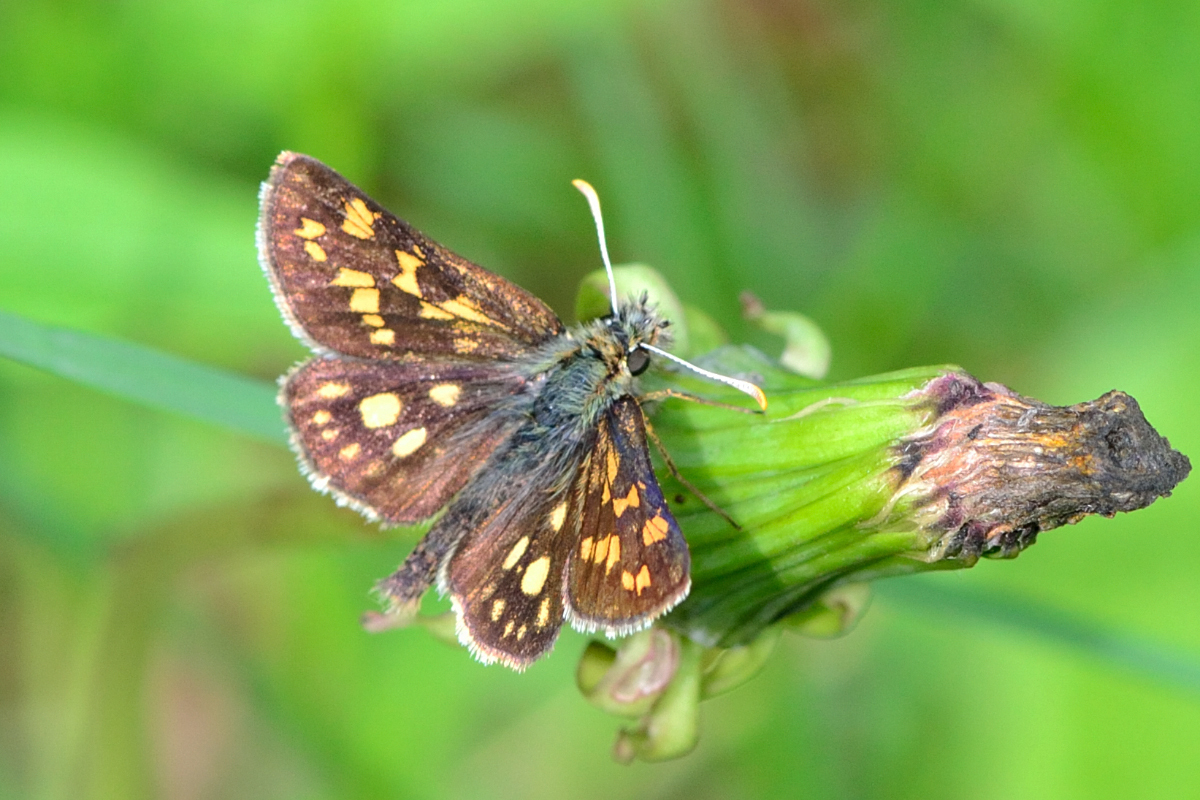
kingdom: Animalia
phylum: Arthropoda
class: Insecta
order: Lepidoptera
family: Hesperiidae
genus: Carterocephalus
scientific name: Carterocephalus palaemon
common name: Chequered skipper
